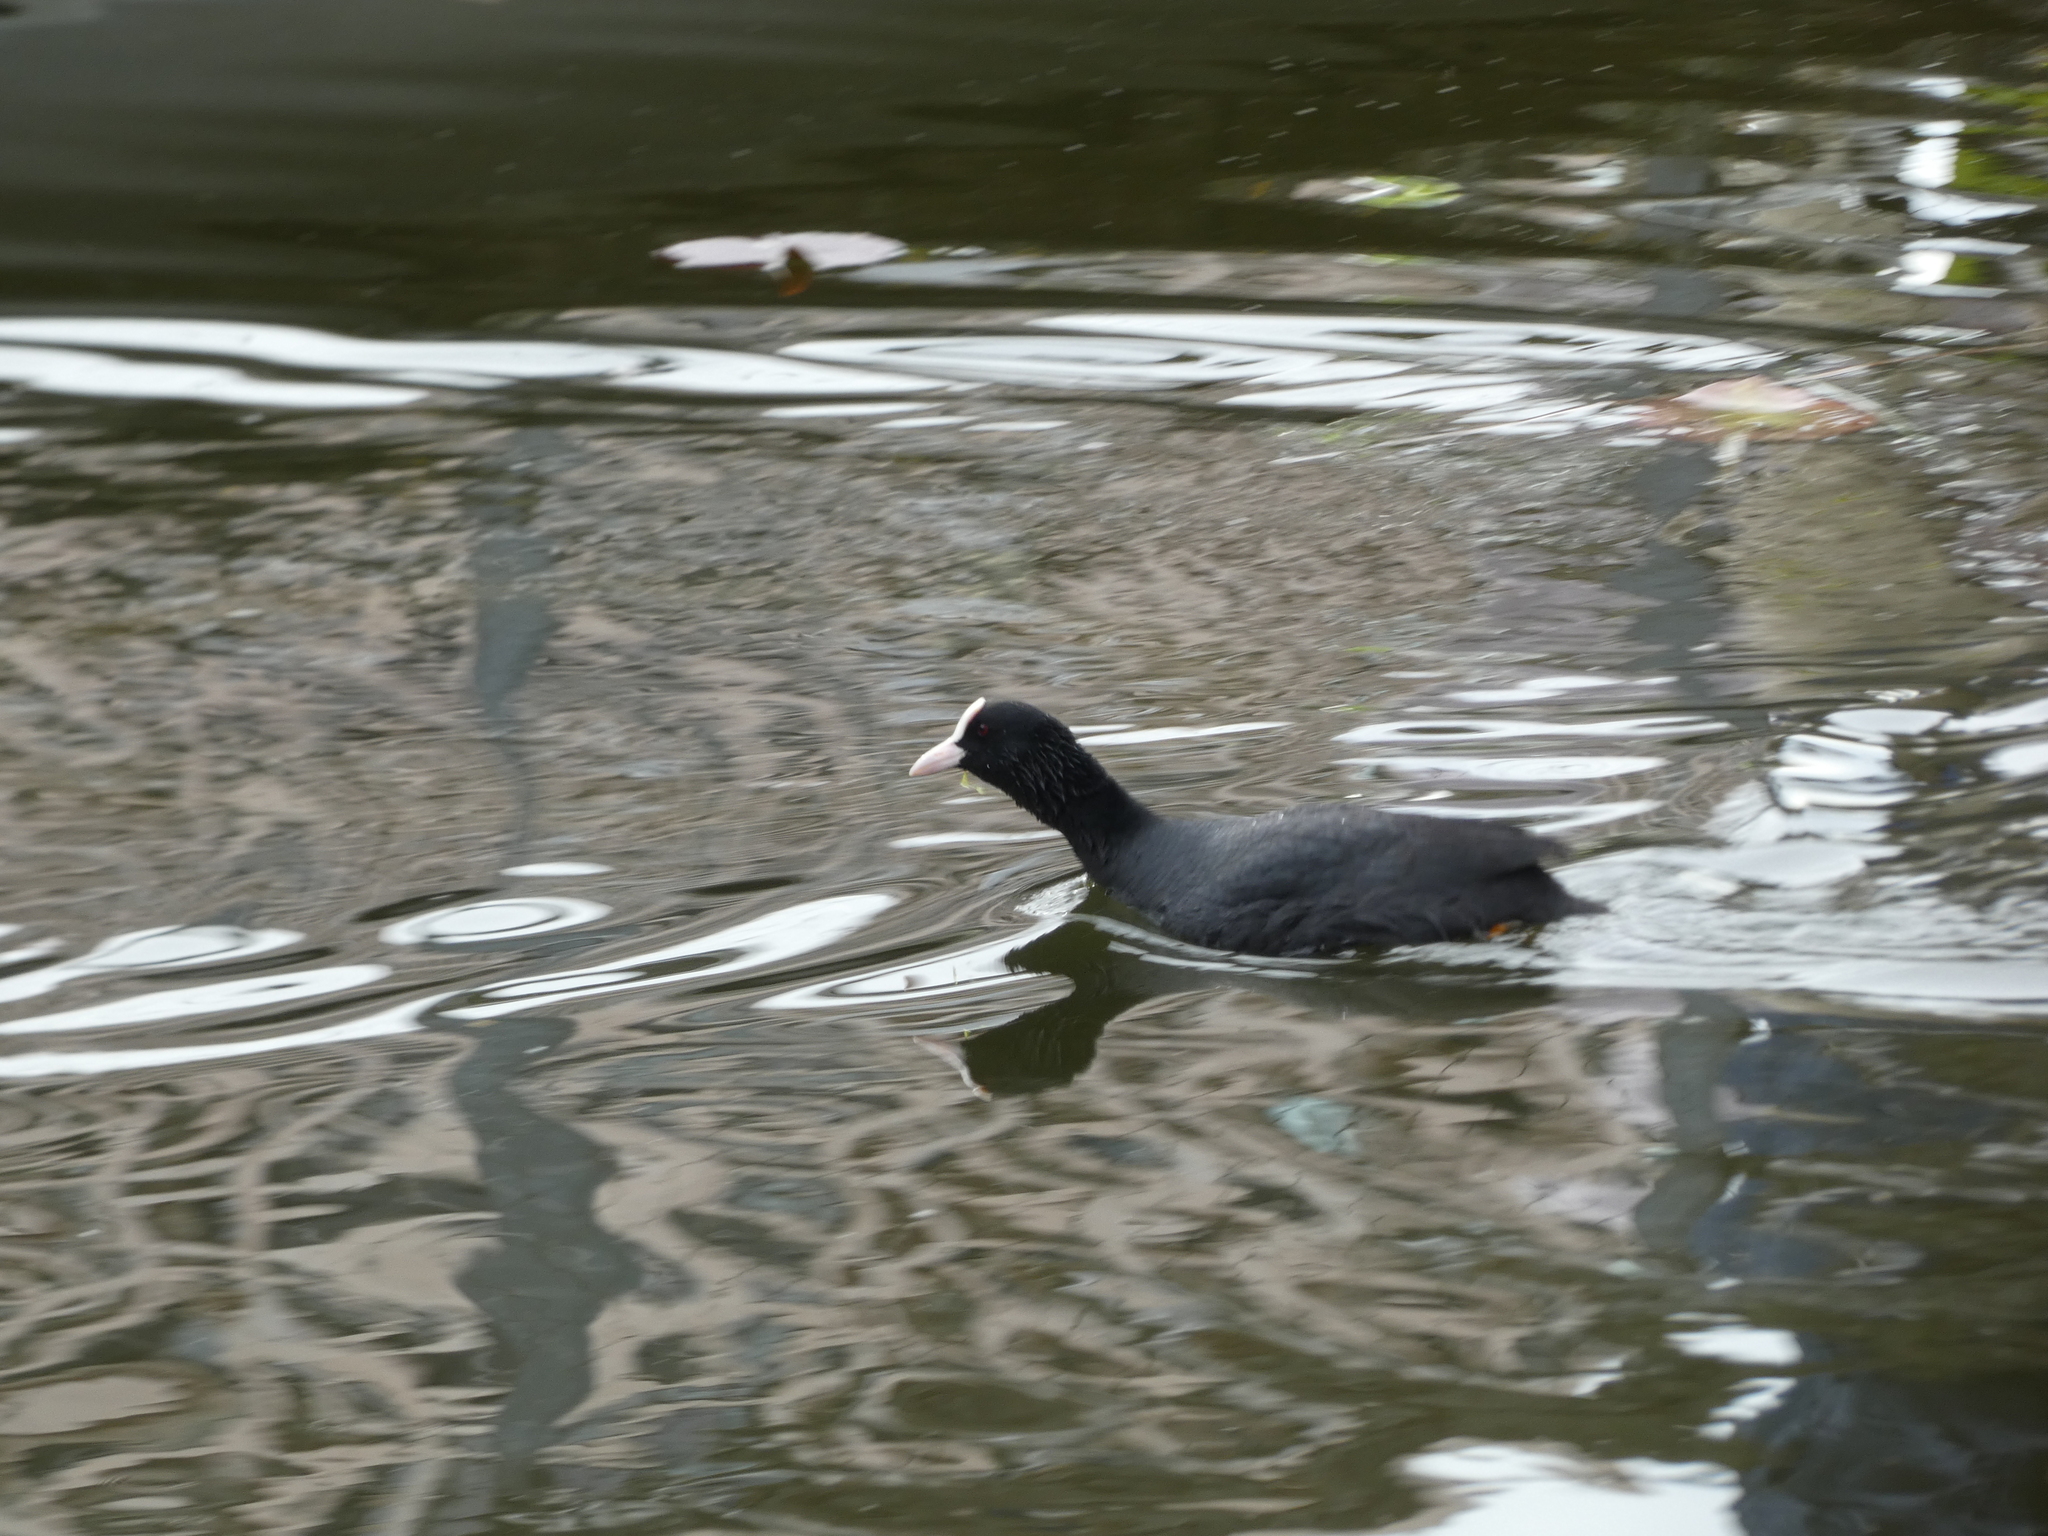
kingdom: Animalia
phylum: Chordata
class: Aves
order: Gruiformes
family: Rallidae
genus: Fulica
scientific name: Fulica atra
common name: Eurasian coot
